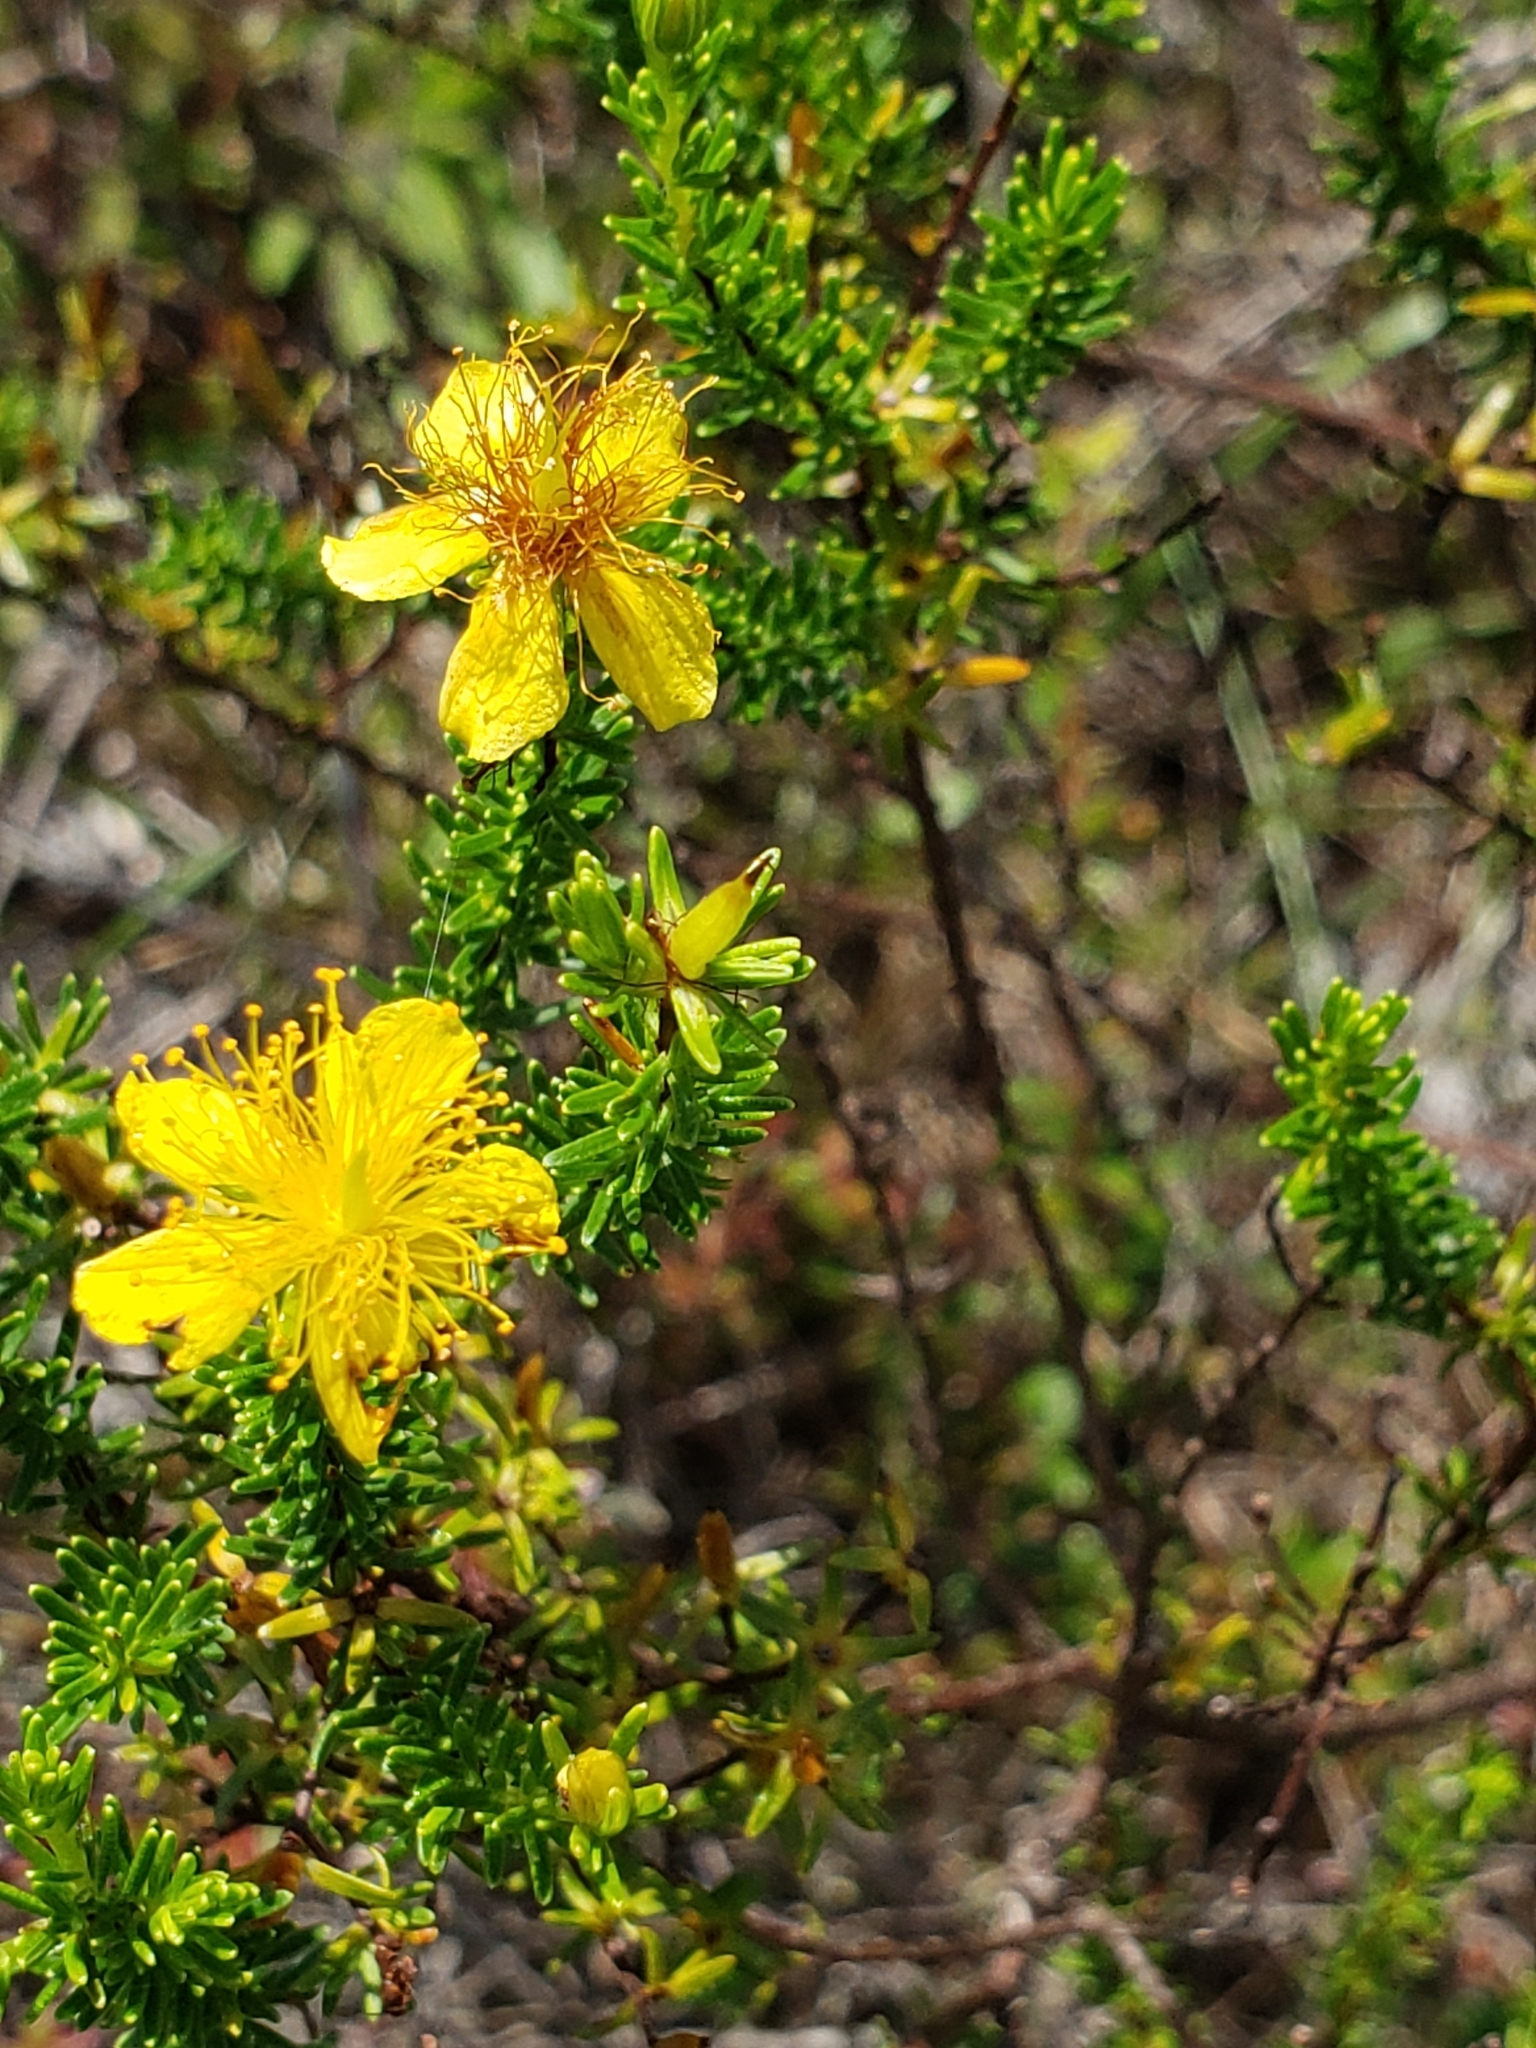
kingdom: Plantae
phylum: Tracheophyta
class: Magnoliopsida
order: Malpighiales
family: Hypericaceae
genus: Hypericum
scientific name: Hypericum tenuifolium
